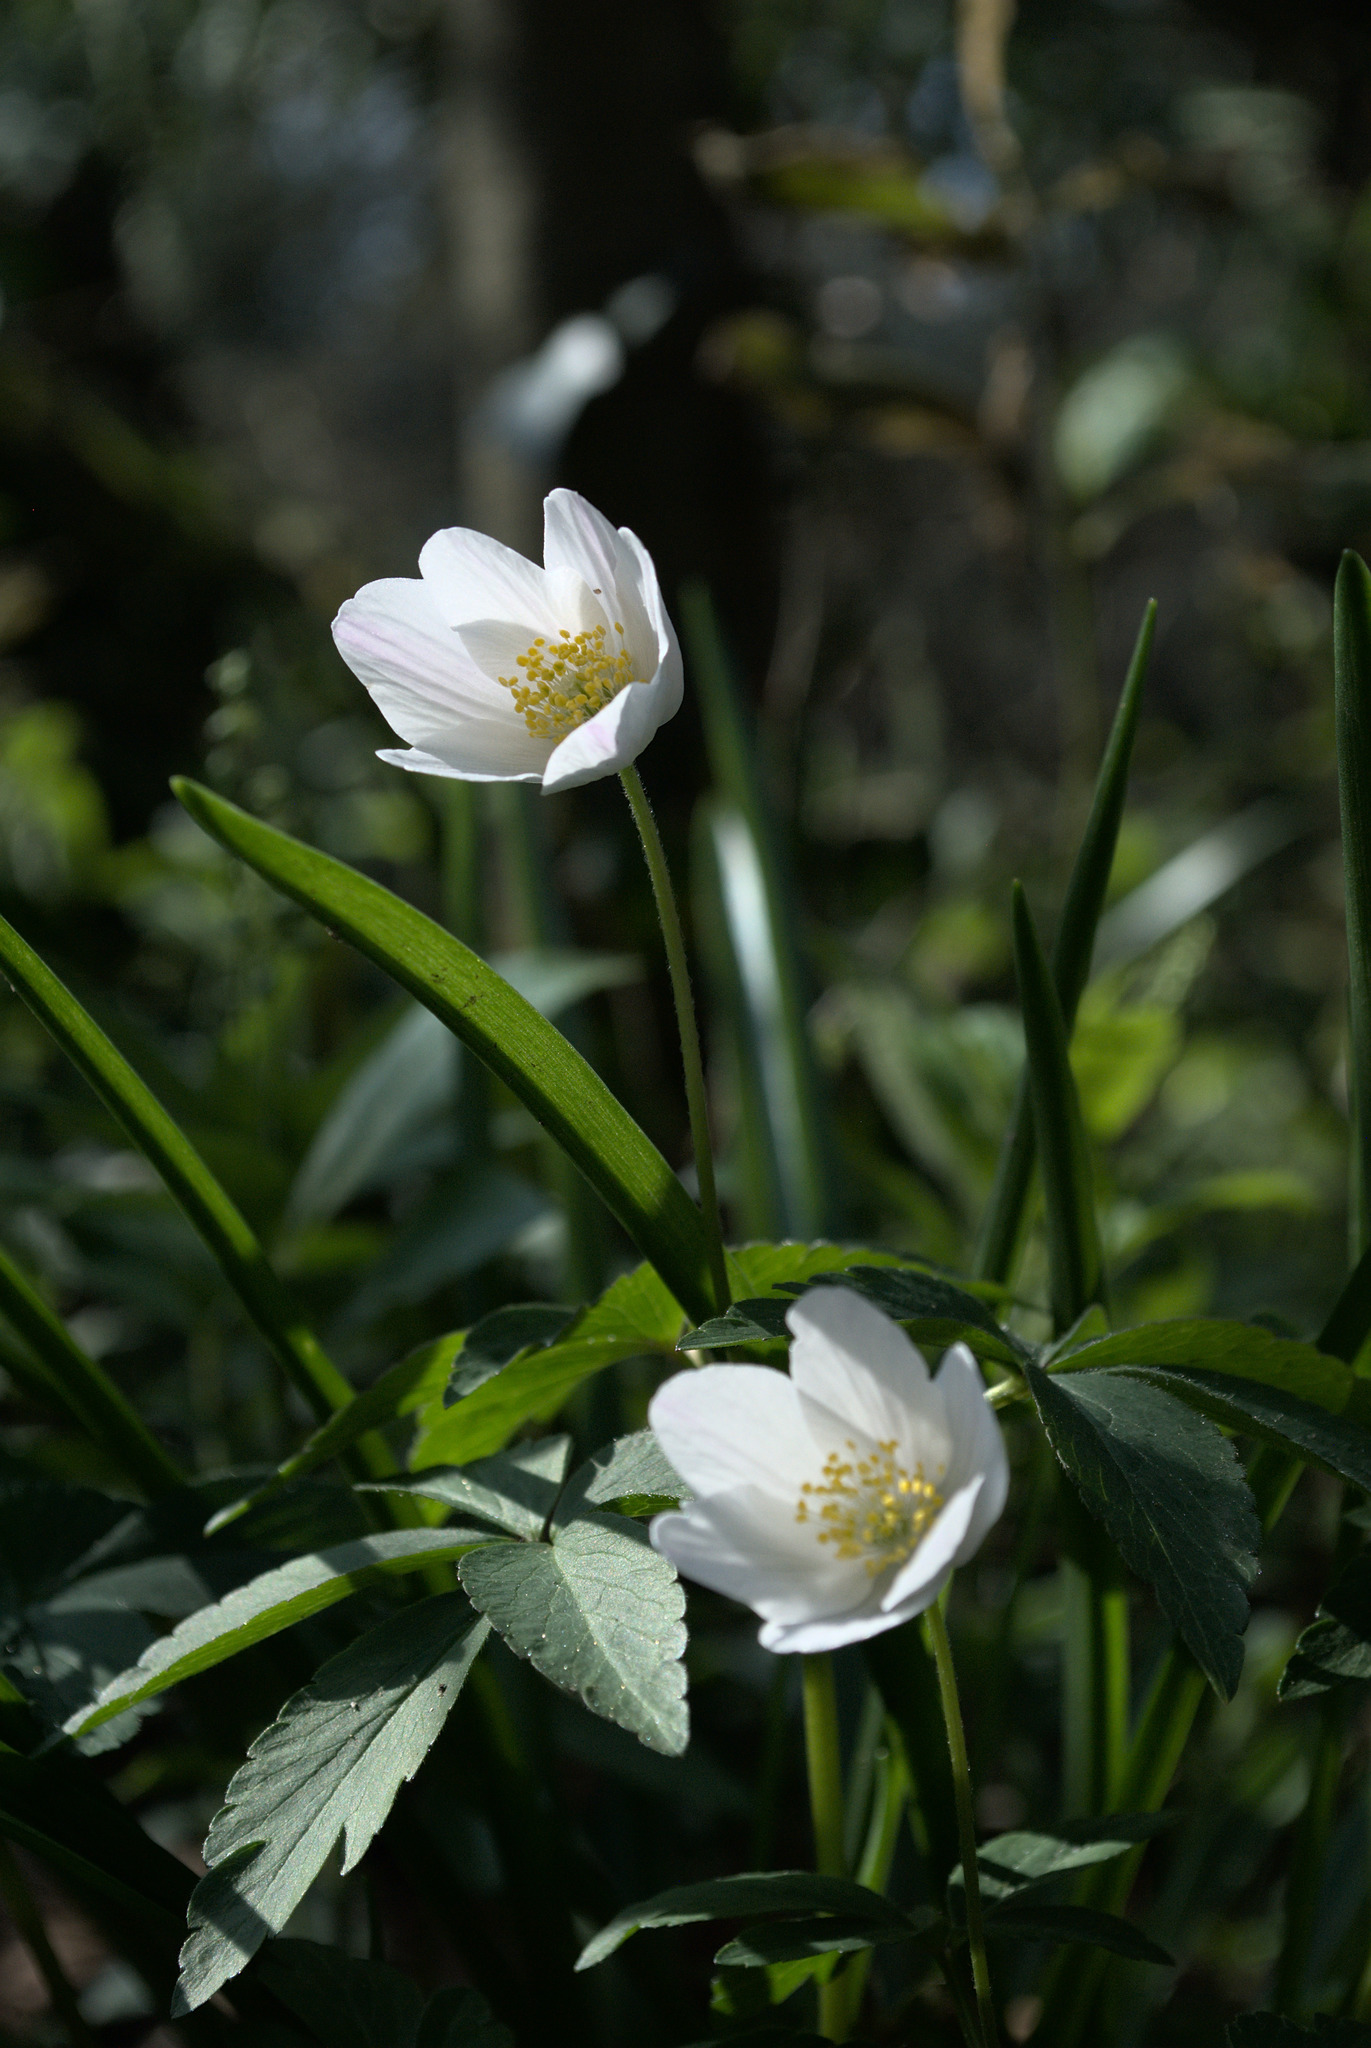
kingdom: Plantae
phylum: Tracheophyta
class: Magnoliopsida
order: Ranunculales
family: Ranunculaceae
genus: Anemone
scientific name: Anemone nemorosa
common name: Wood anemone
